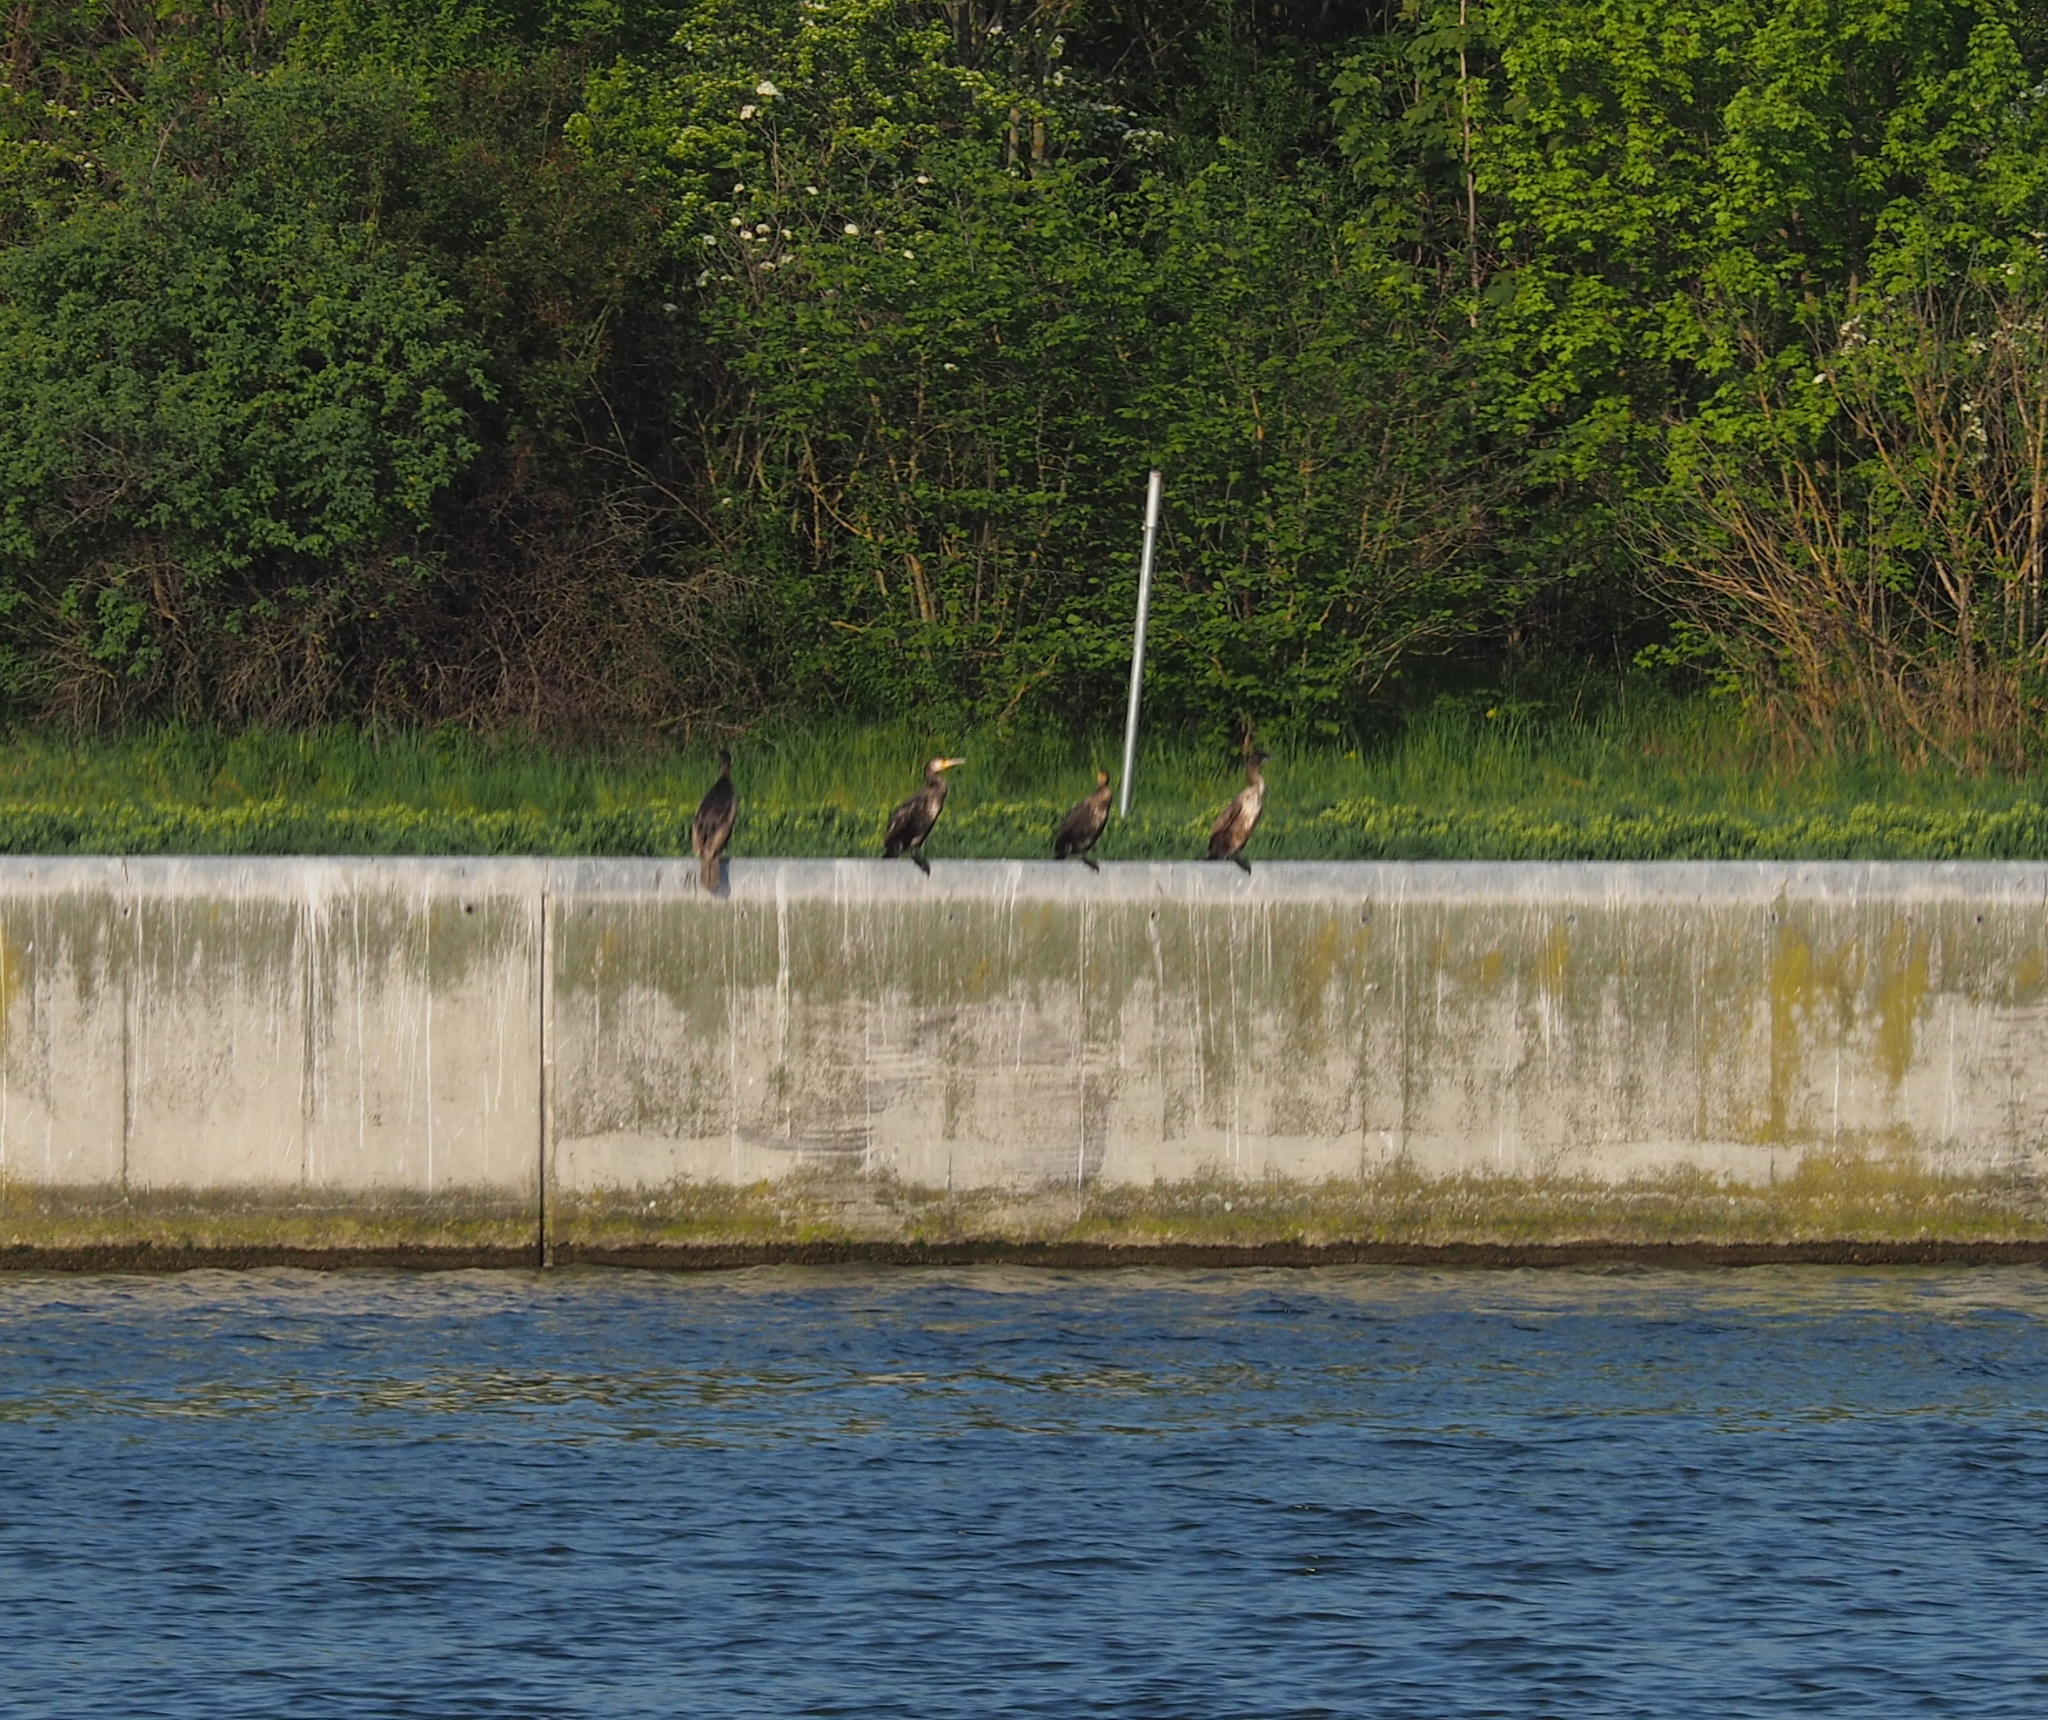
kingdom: Animalia
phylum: Chordata
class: Aves
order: Suliformes
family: Phalacrocoracidae
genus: Phalacrocorax
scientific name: Phalacrocorax carbo
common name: Great cormorant
